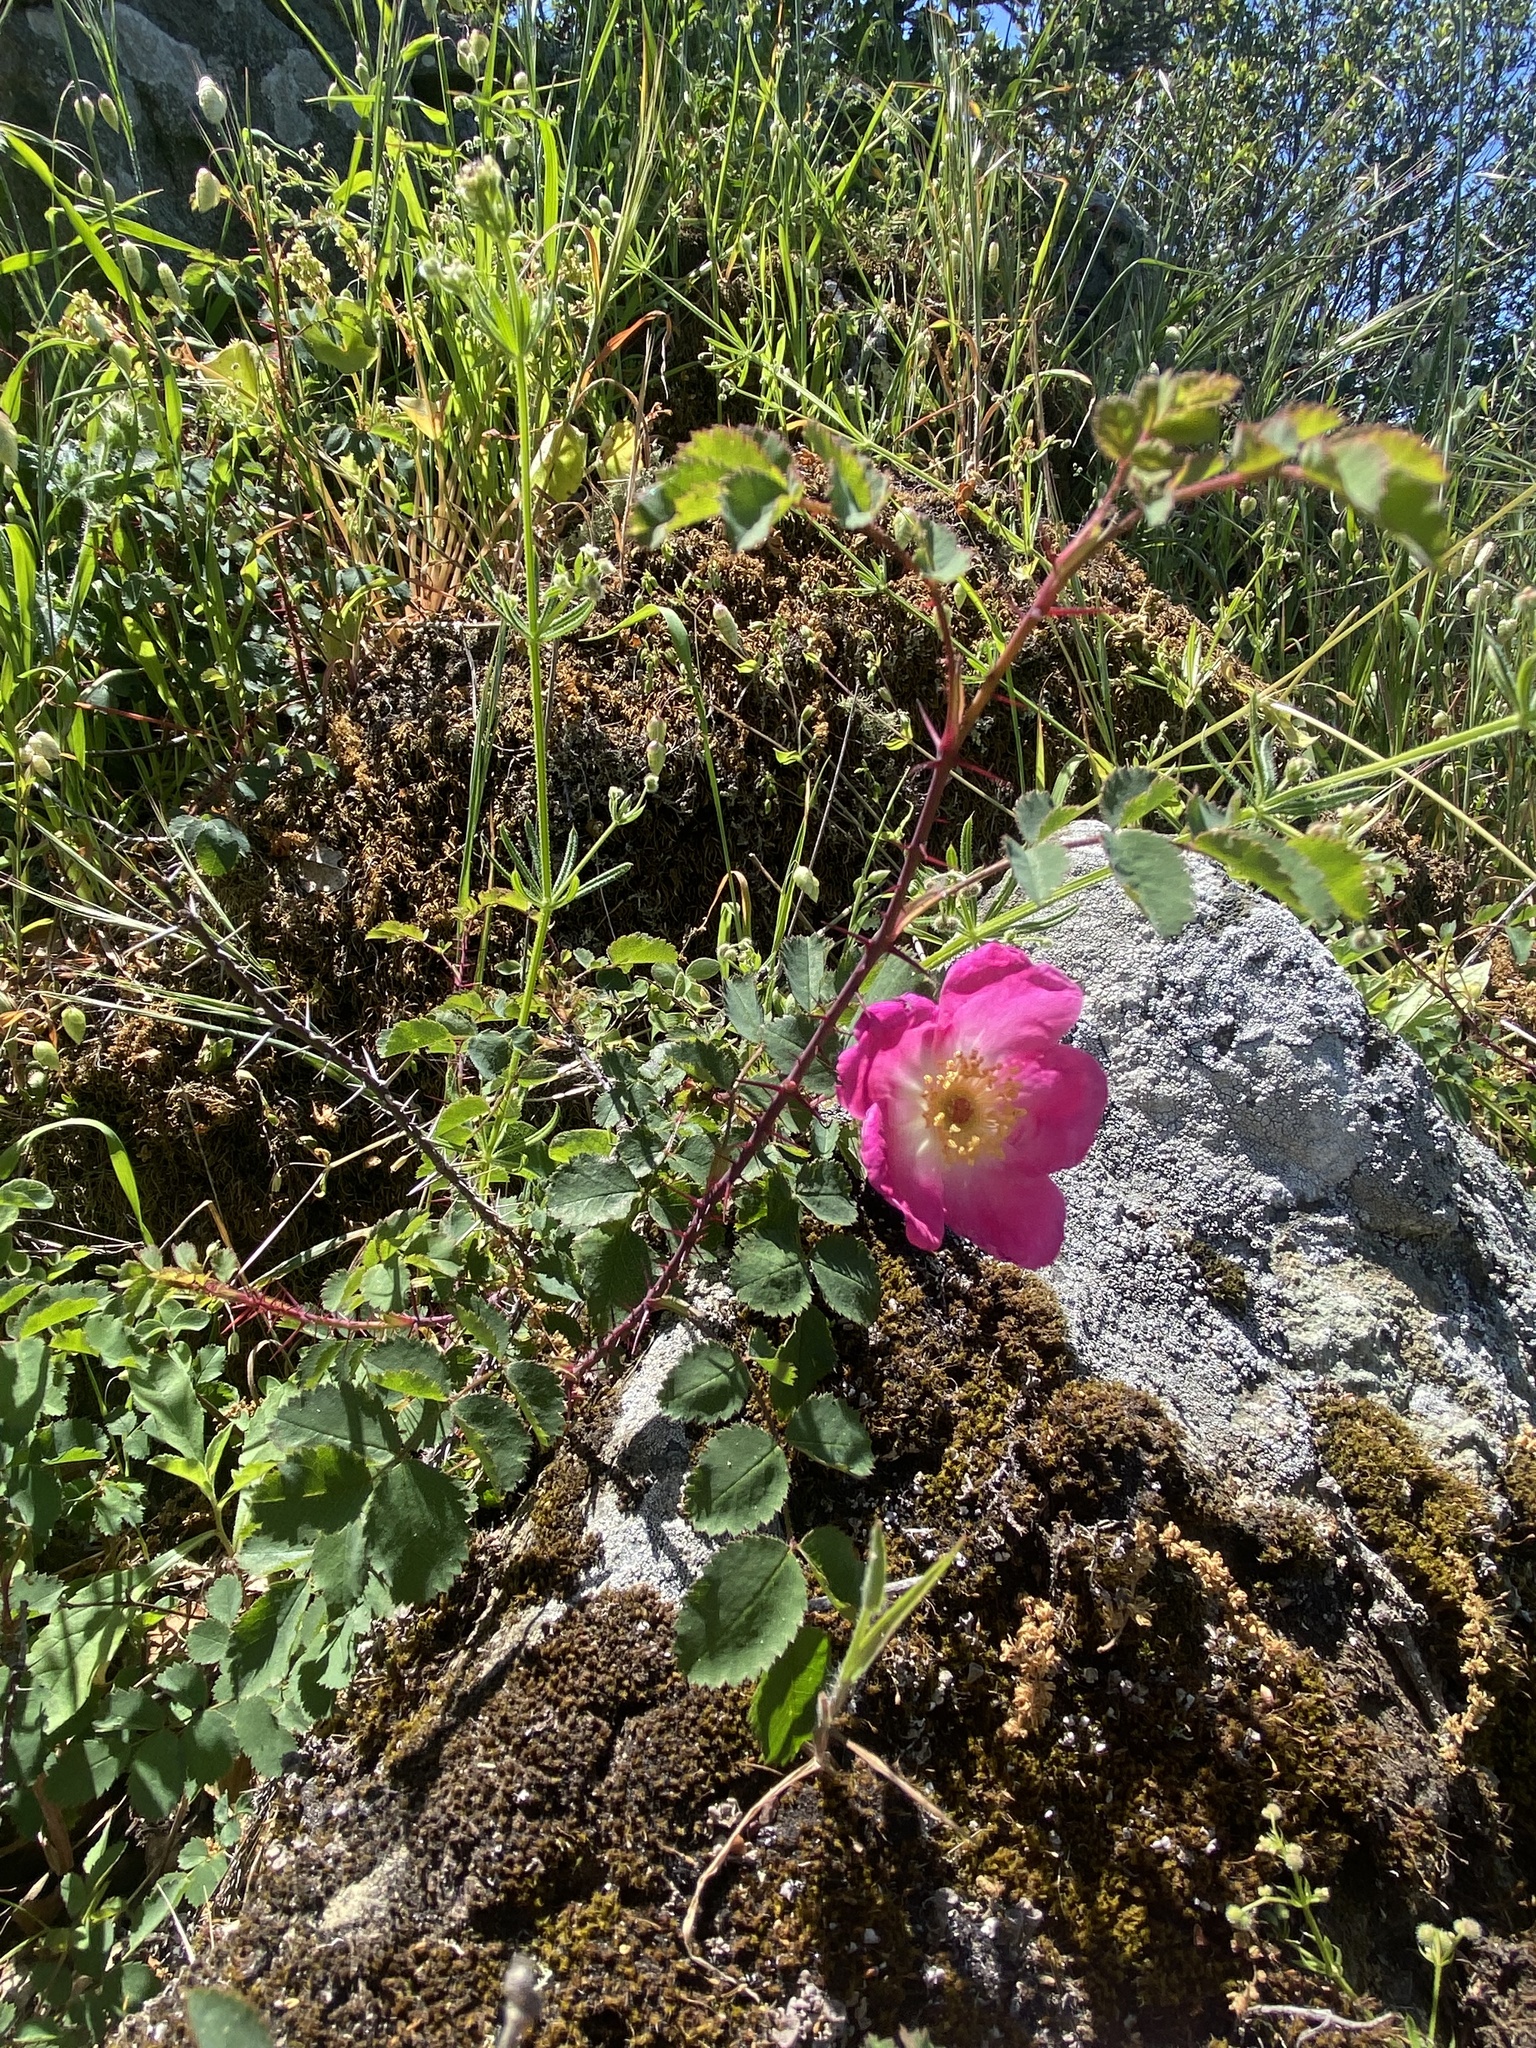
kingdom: Plantae
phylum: Tracheophyta
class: Magnoliopsida
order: Rosales
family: Rosaceae
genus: Rosa
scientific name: Rosa californica
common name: California rose
